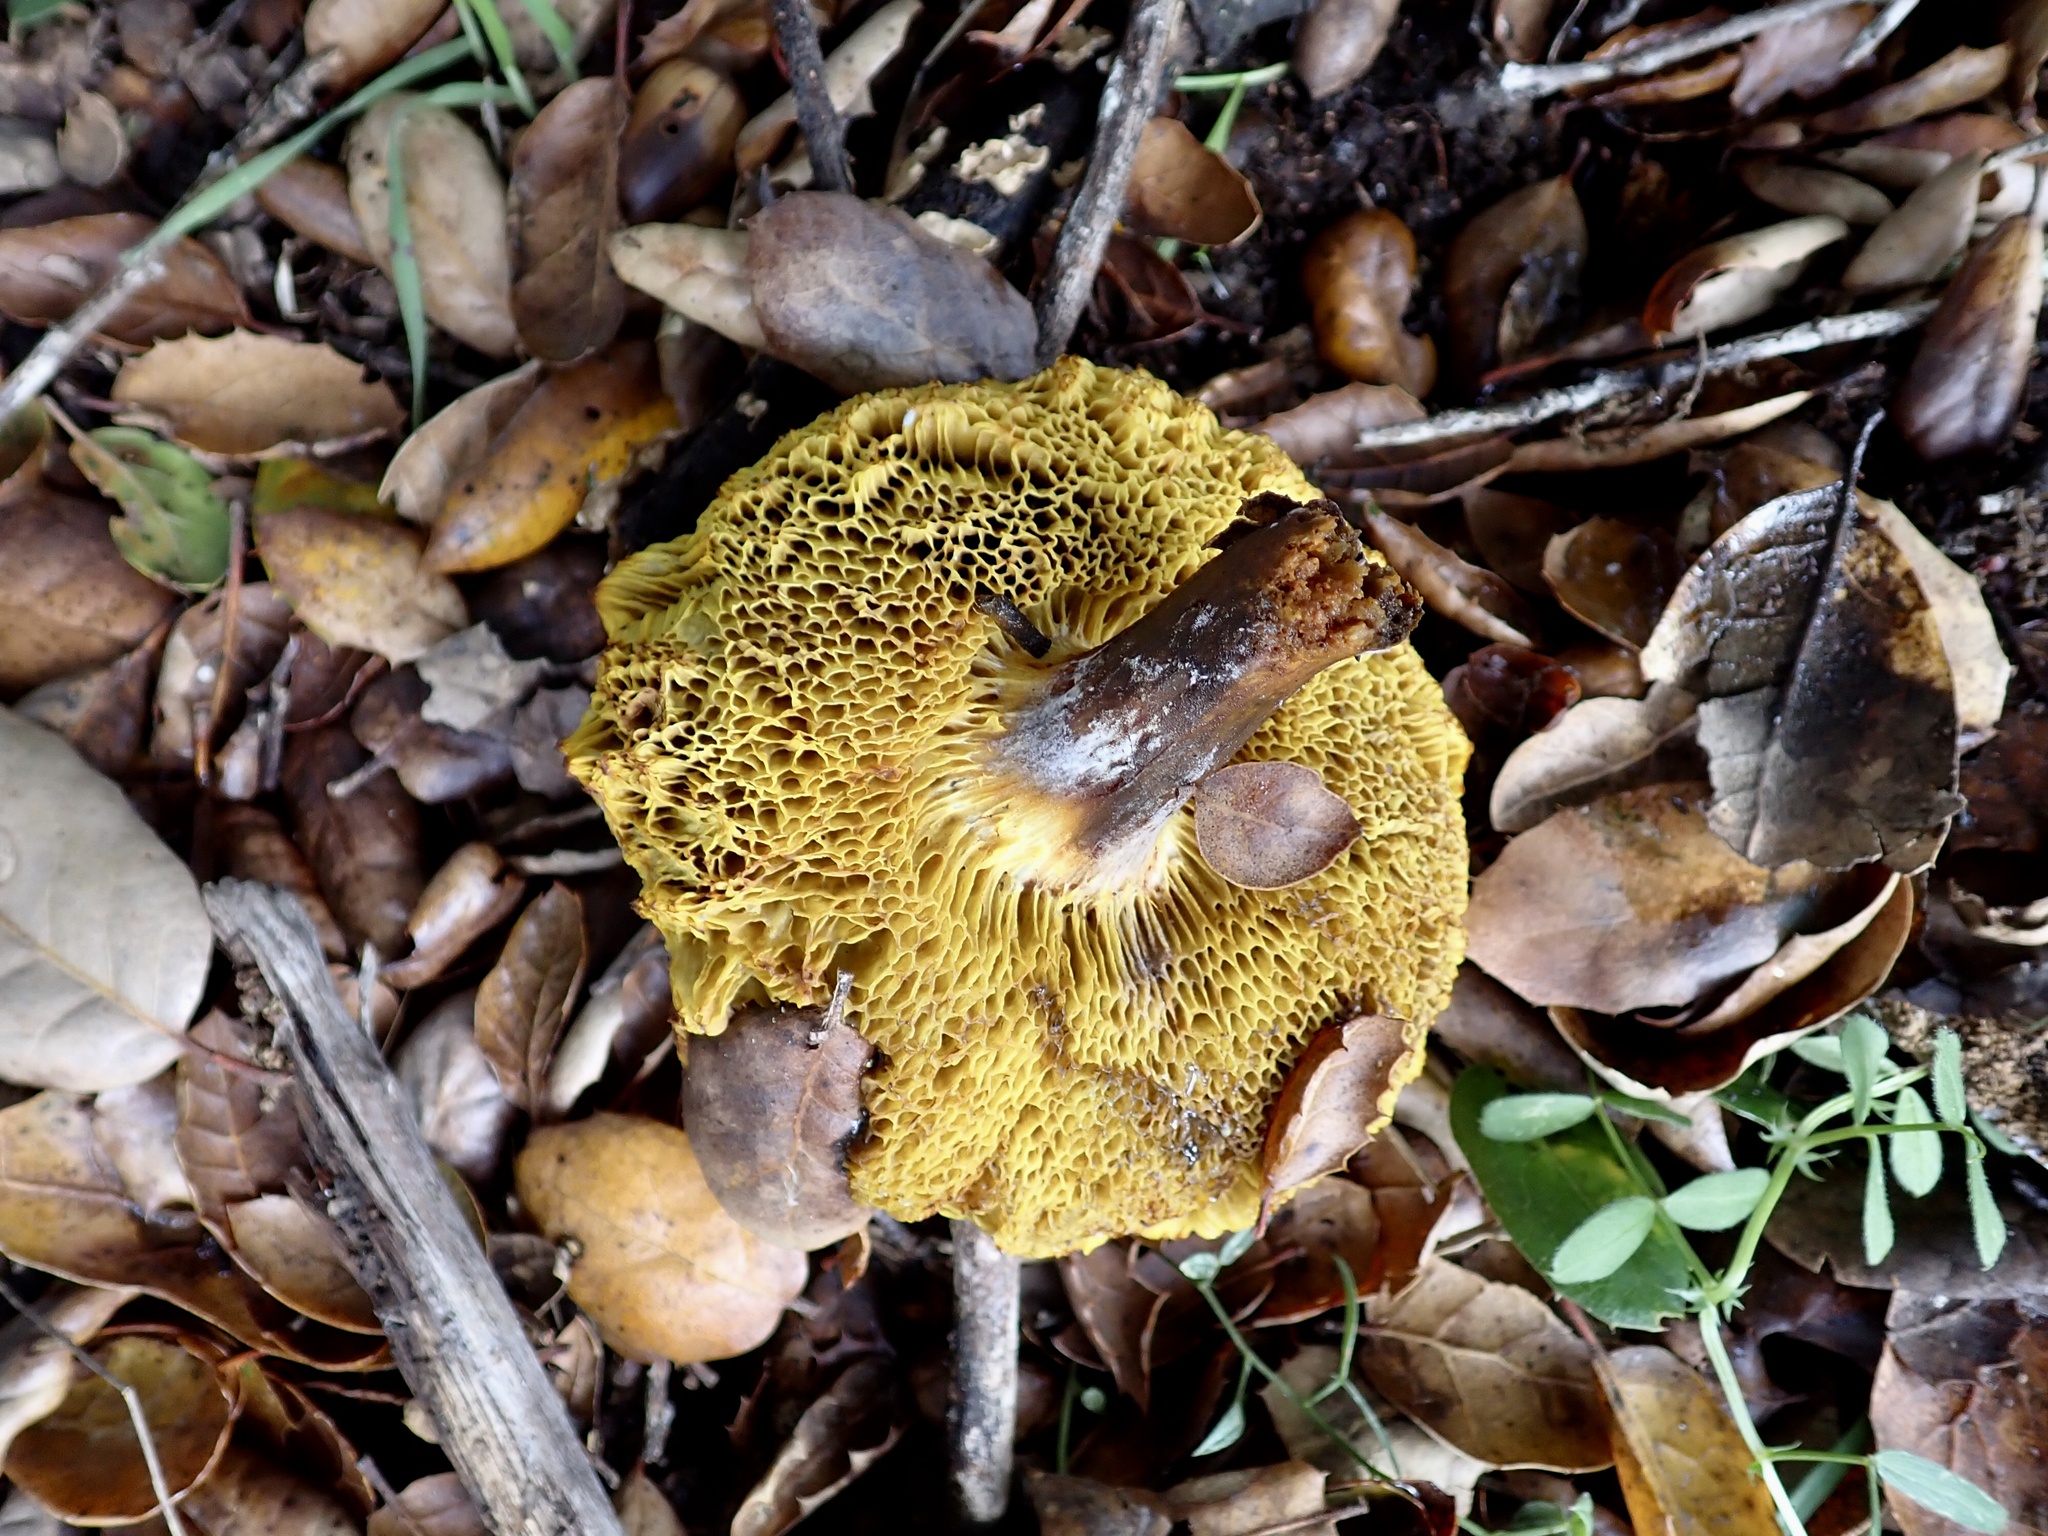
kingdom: Fungi
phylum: Basidiomycota
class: Agaricomycetes
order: Boletales
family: Boletaceae
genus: Xerocomellus
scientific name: Xerocomellus diffractus
